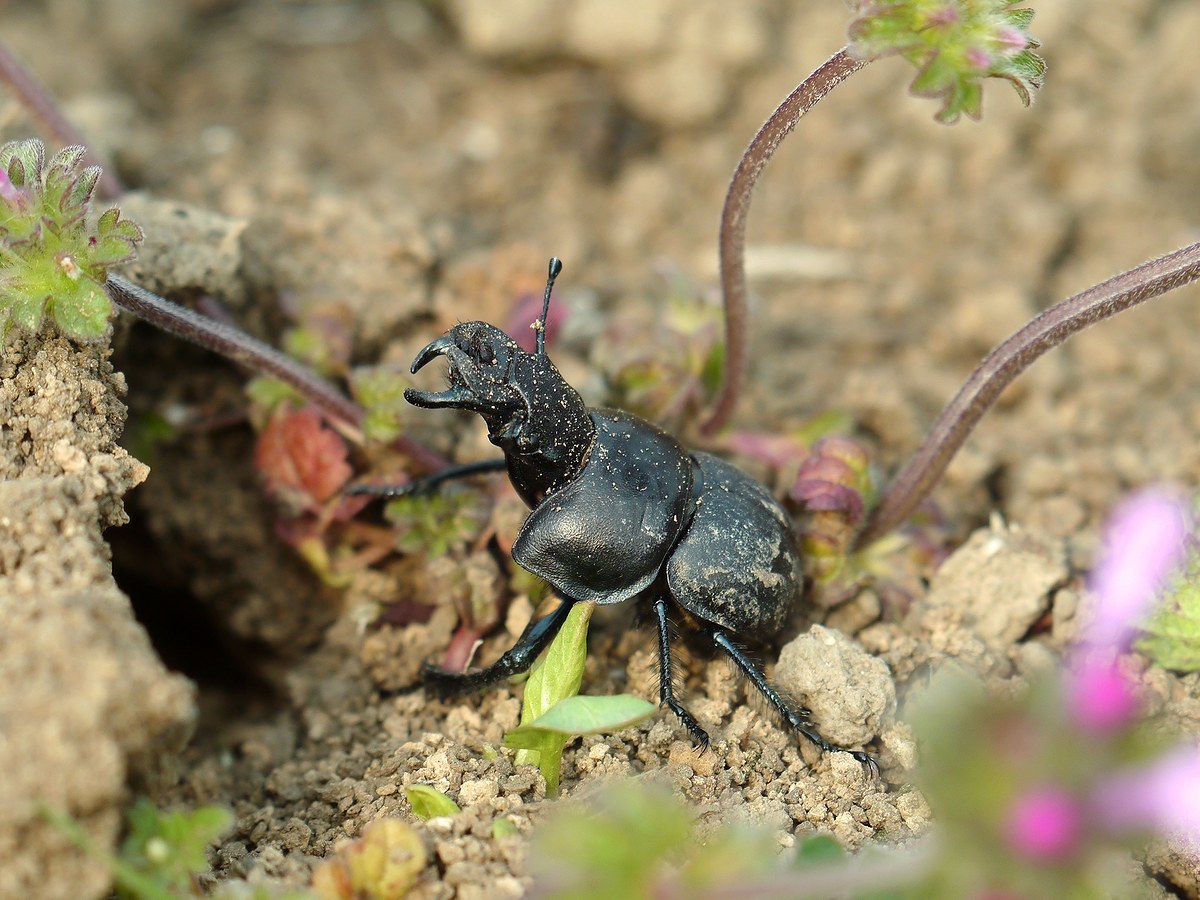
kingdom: Animalia
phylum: Arthropoda
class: Insecta
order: Coleoptera
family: Geotrupidae
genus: Lethrus
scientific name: Lethrus apterus
